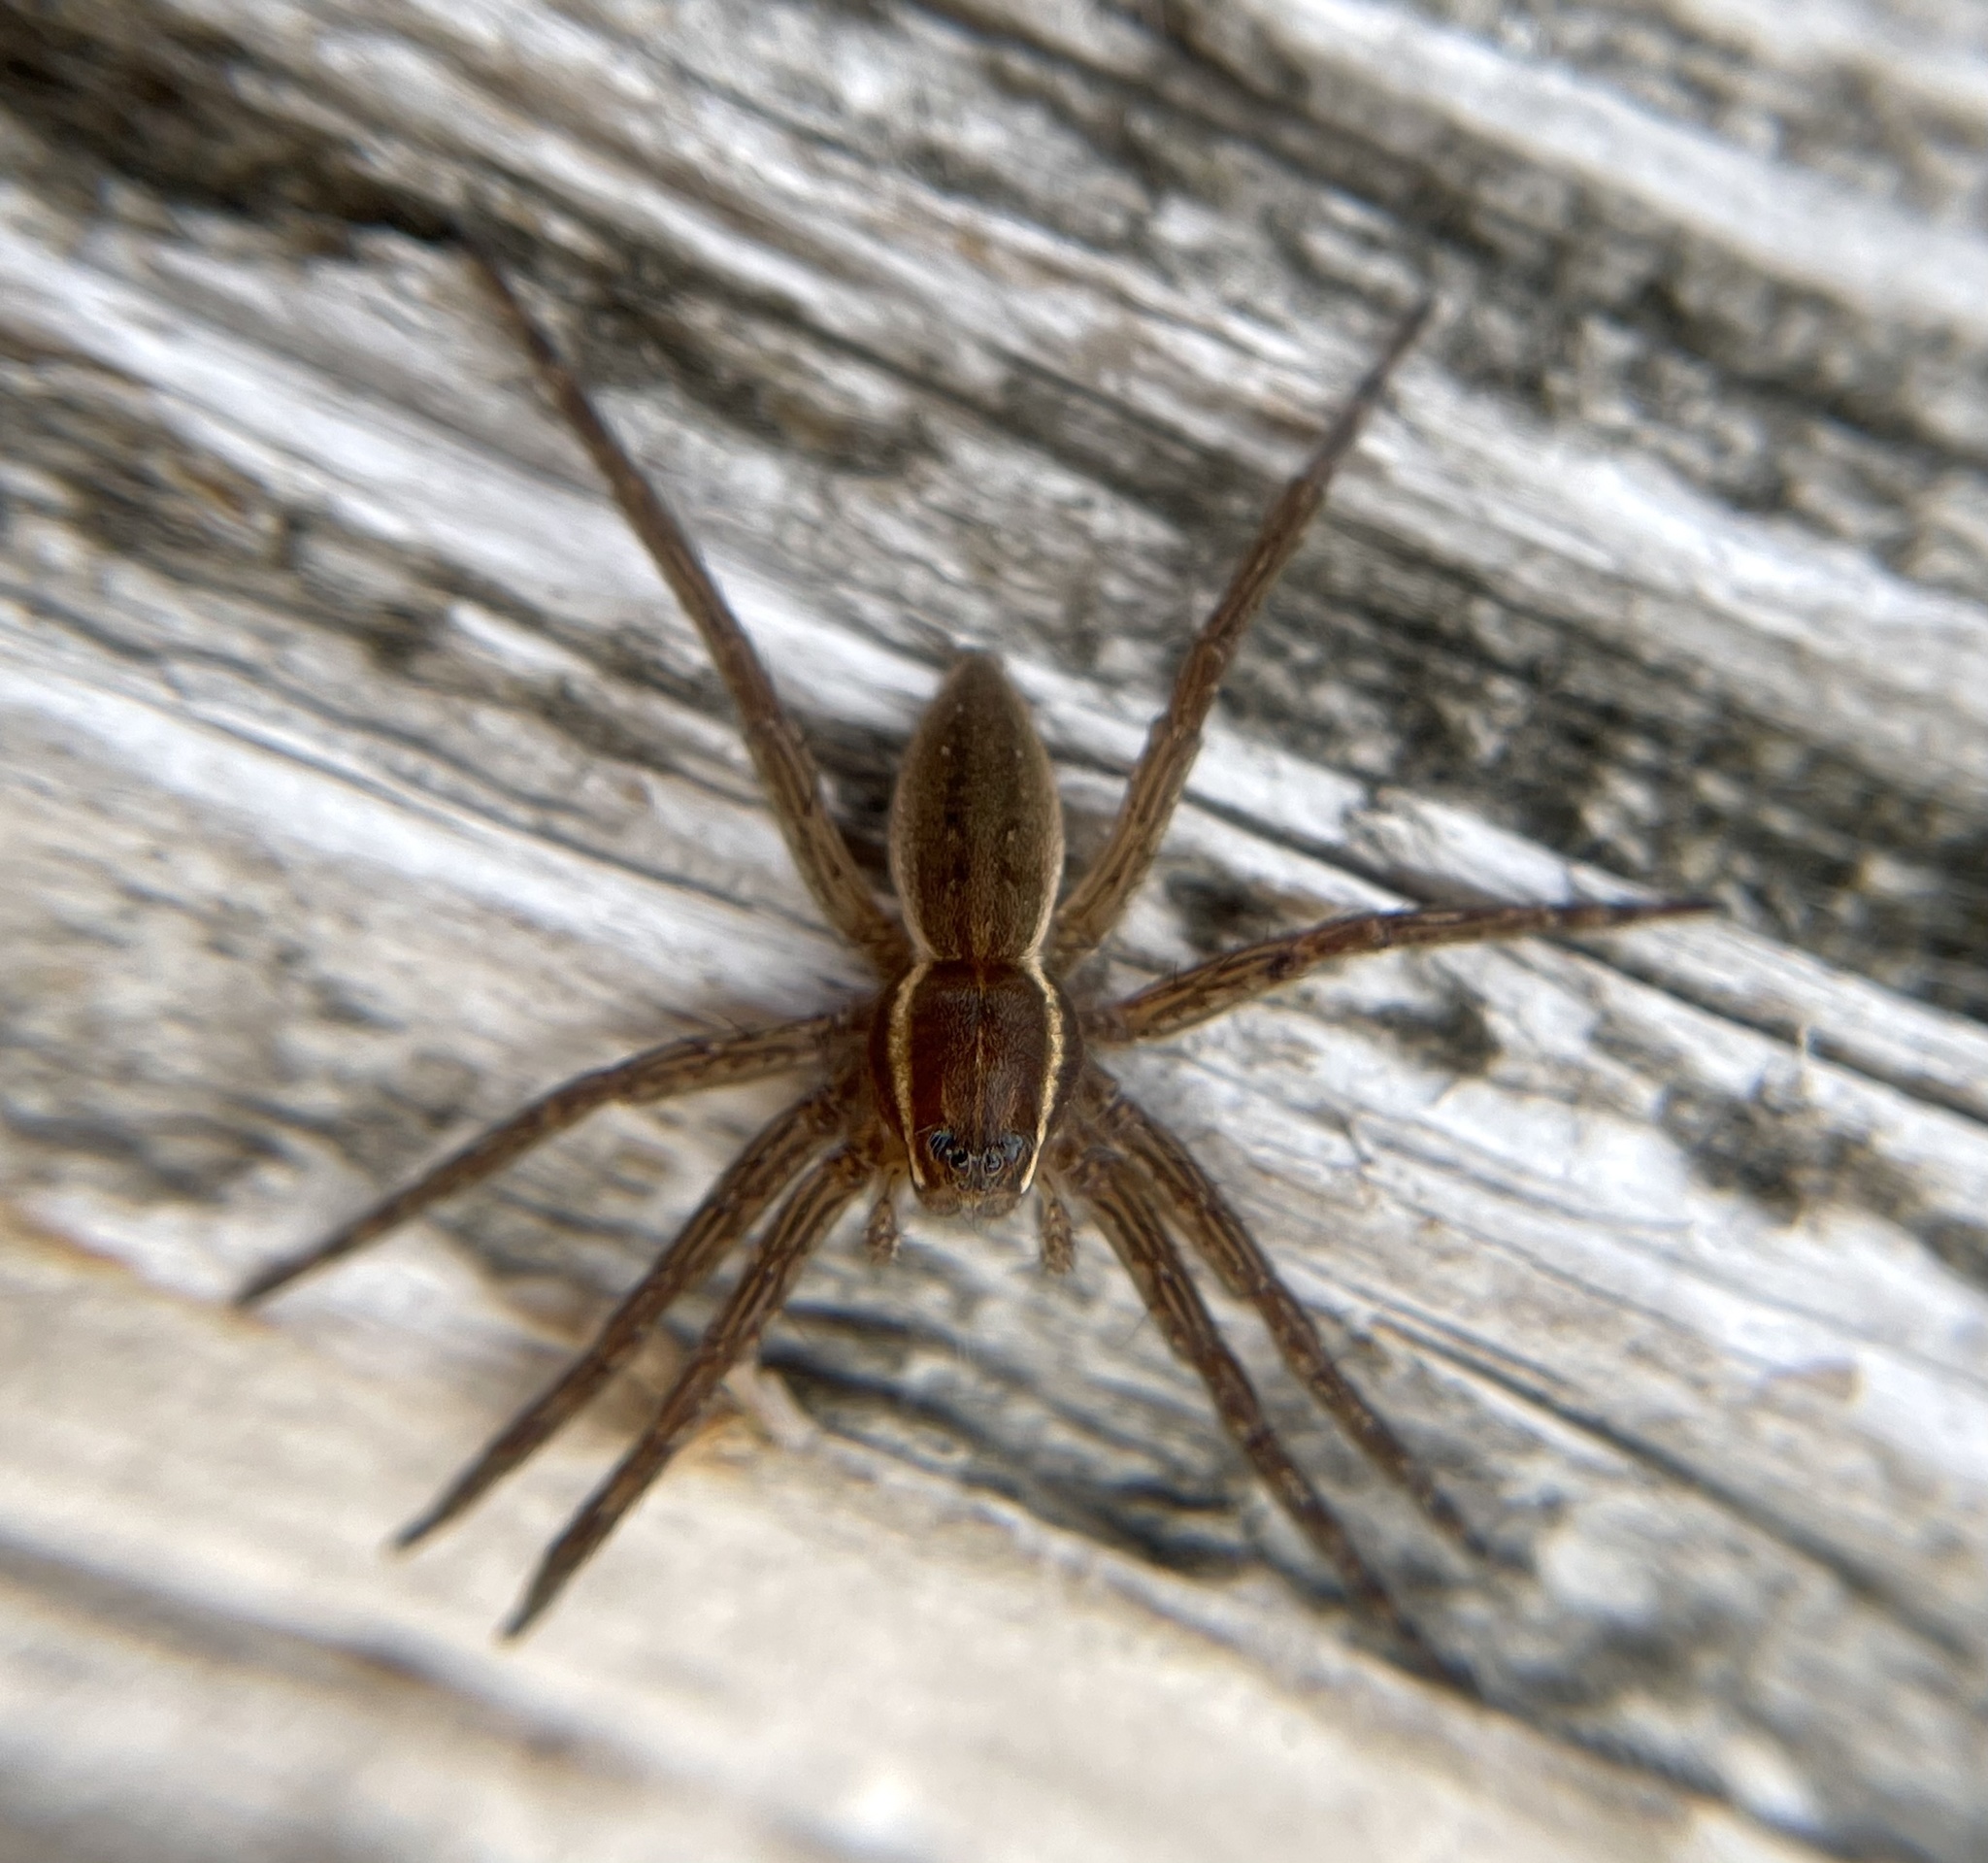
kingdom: Animalia
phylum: Arthropoda
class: Arachnida
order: Araneae
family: Pisauridae
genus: Dolomedes
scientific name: Dolomedes triton
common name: Six-spotted fishing spider
